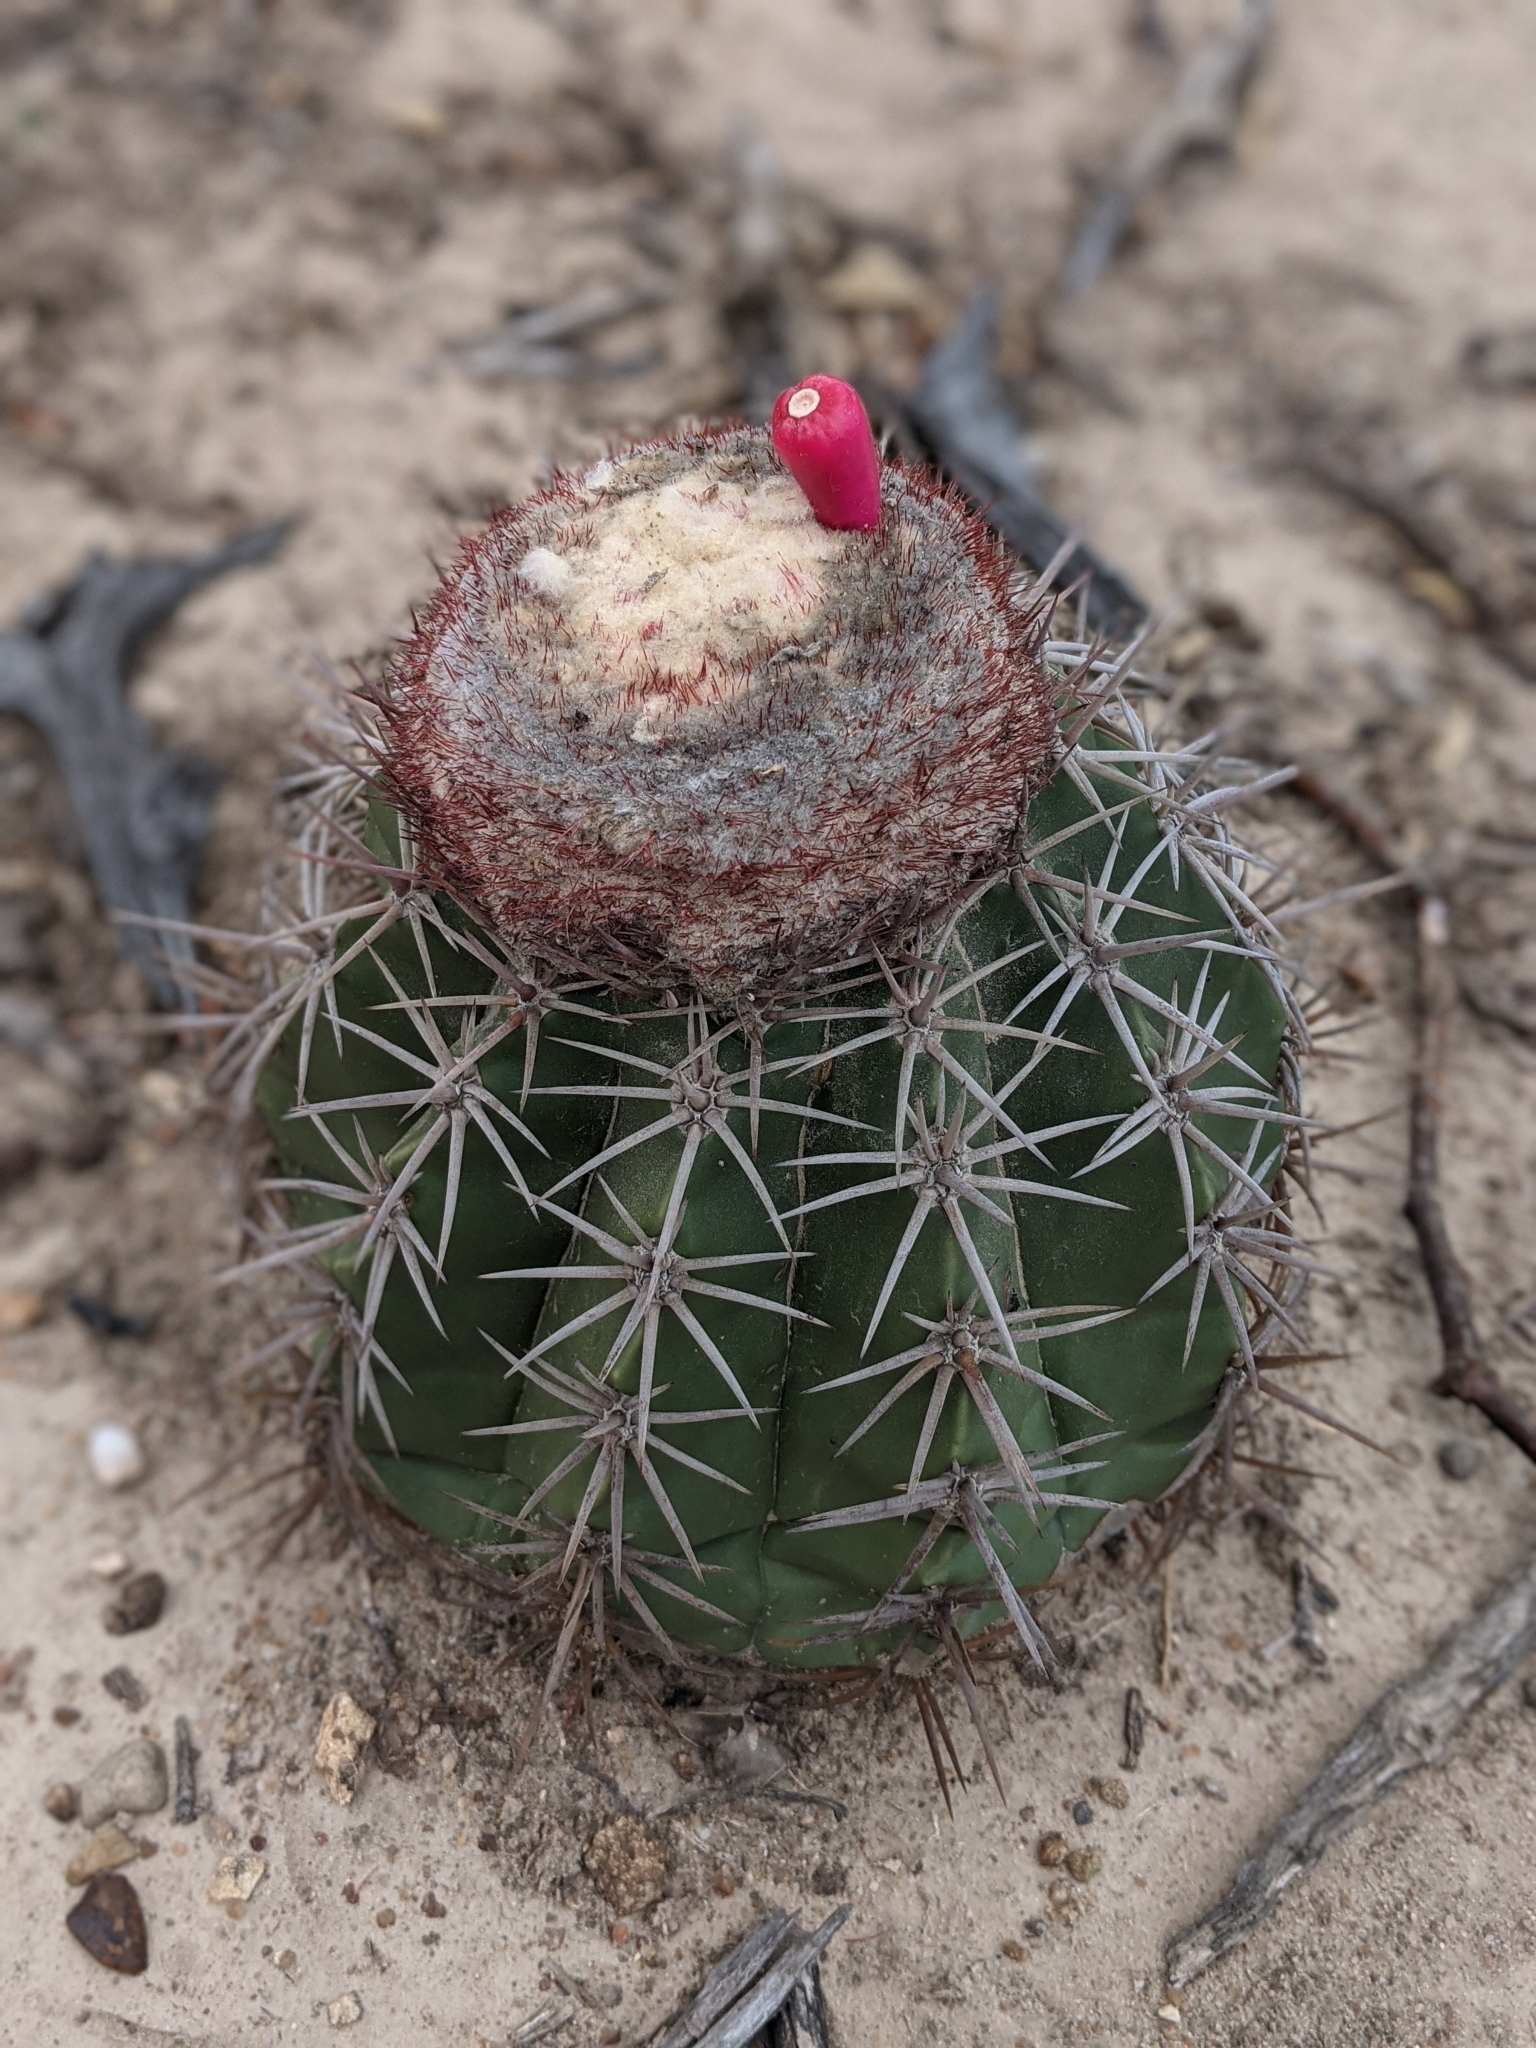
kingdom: Plantae
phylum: Tracheophyta
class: Magnoliopsida
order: Caryophyllales
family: Cactaceae
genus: Melocactus
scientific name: Melocactus curvispinus
